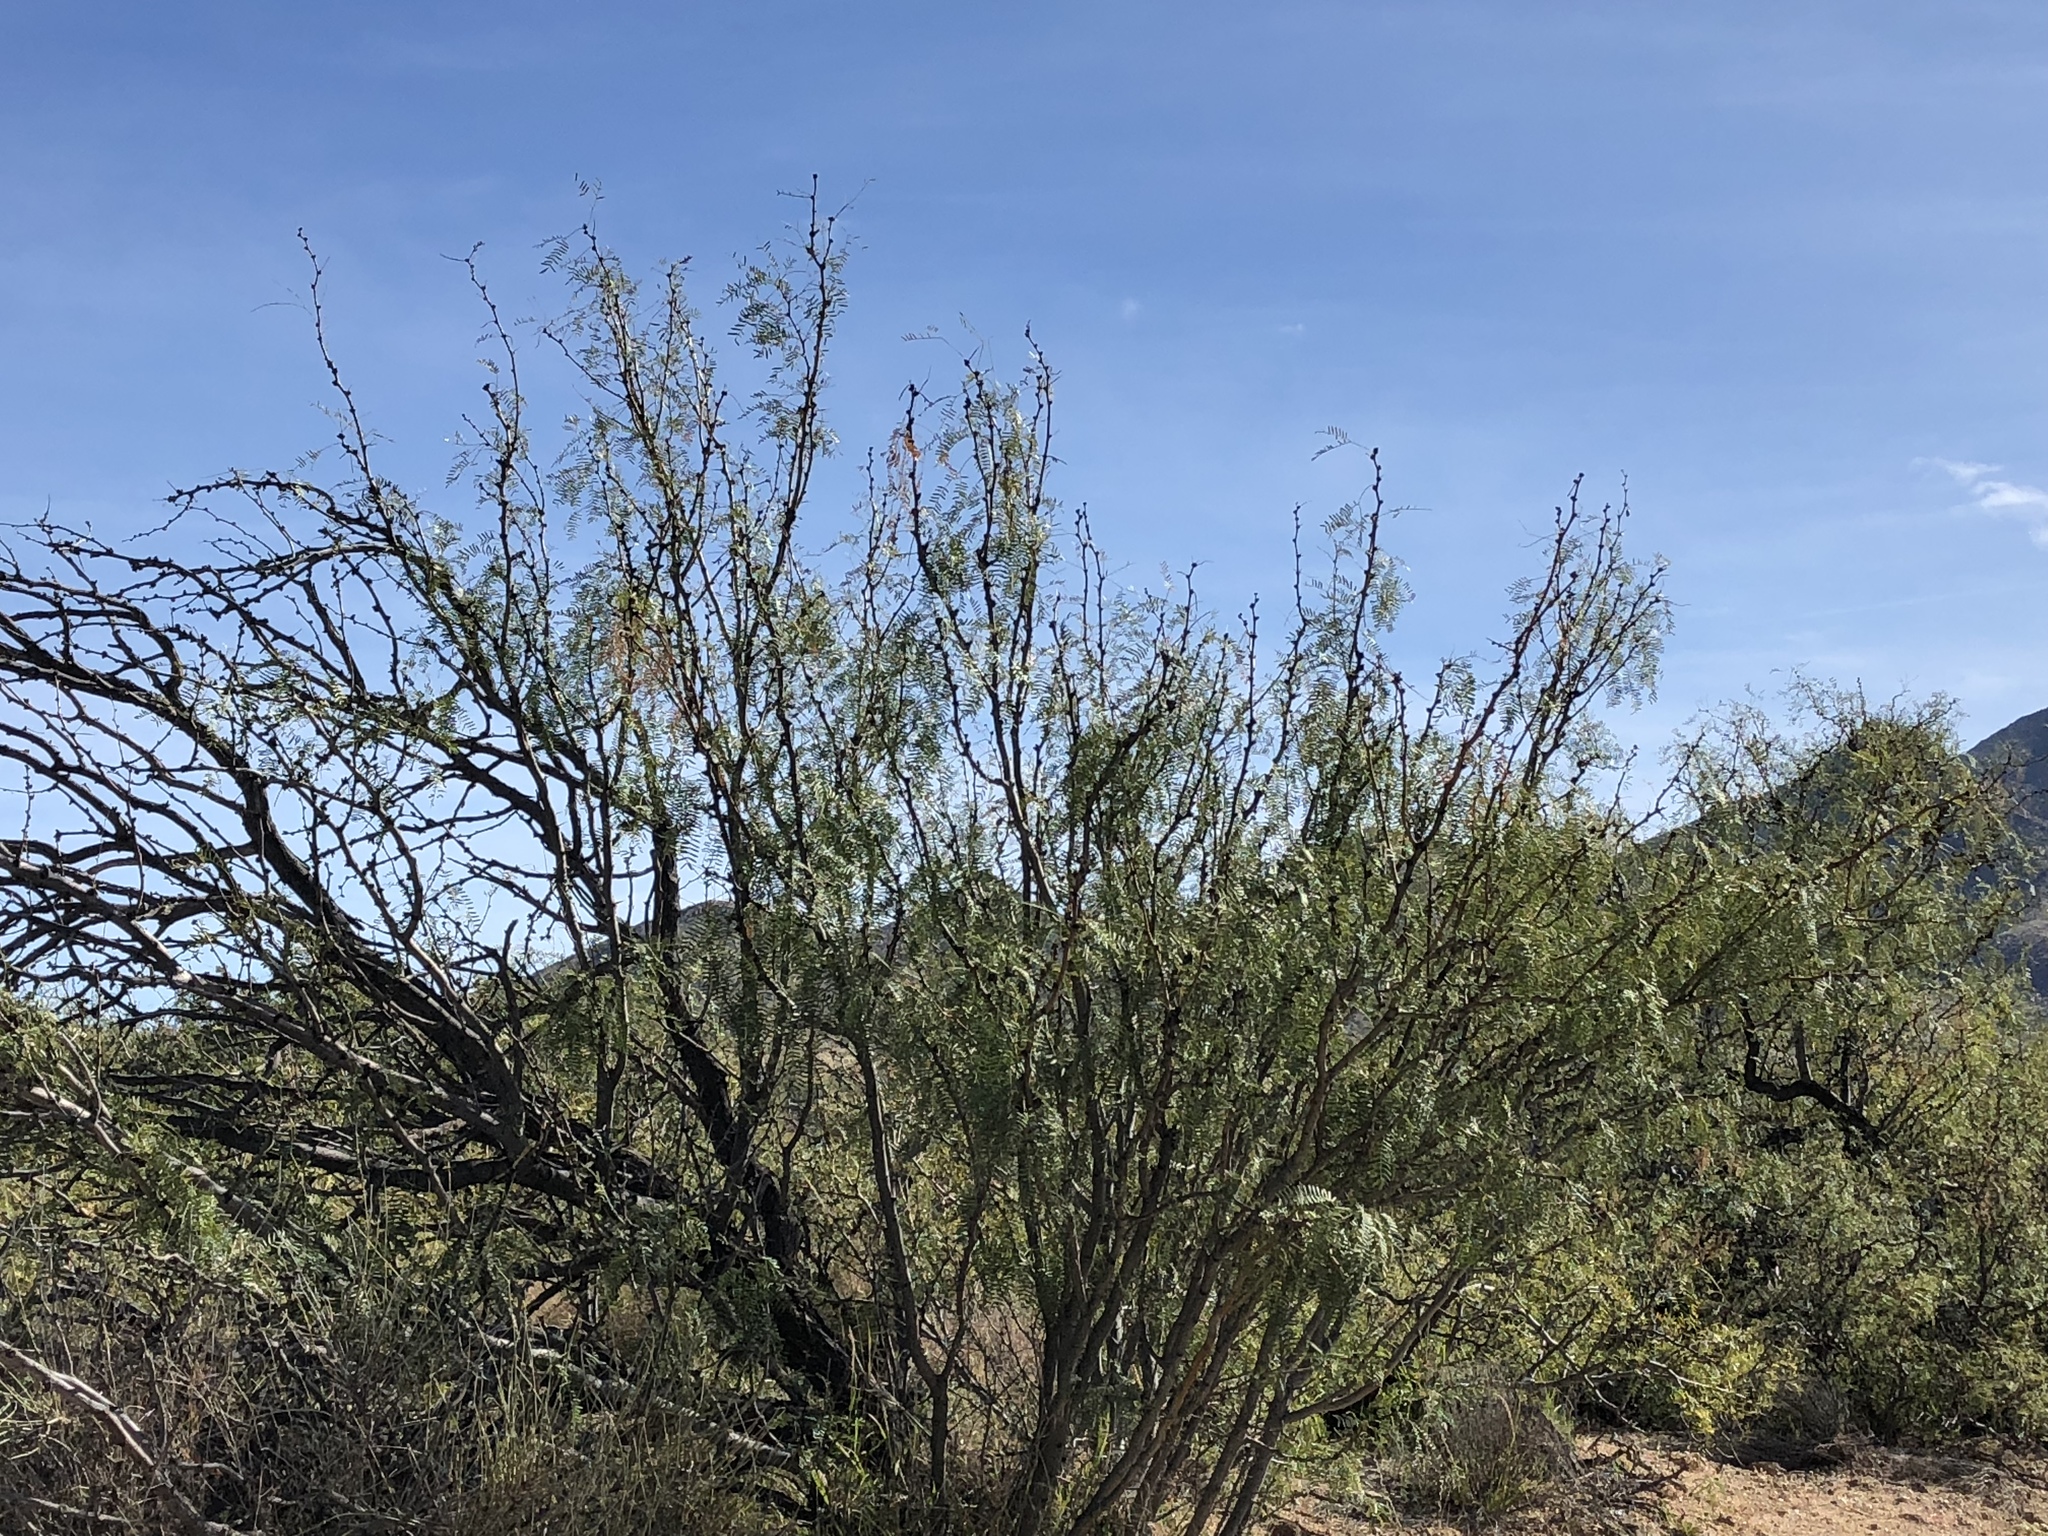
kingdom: Plantae
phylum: Tracheophyta
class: Magnoliopsida
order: Fabales
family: Fabaceae
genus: Prosopis
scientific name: Prosopis glandulosa
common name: Honey mesquite
